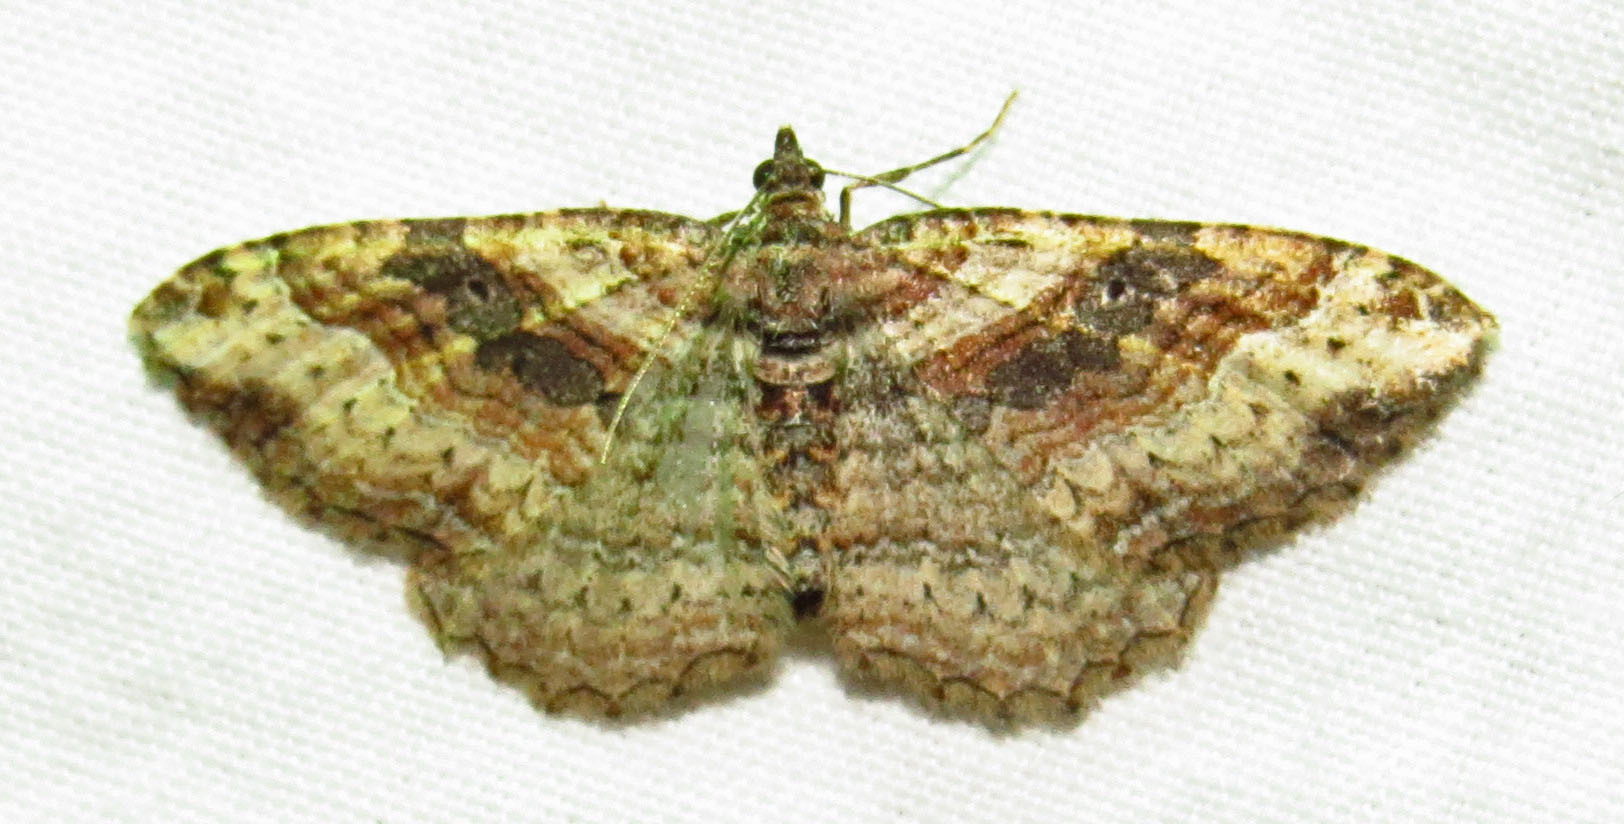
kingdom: Animalia
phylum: Arthropoda
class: Insecta
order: Lepidoptera
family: Geometridae
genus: Costaconvexa
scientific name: Costaconvexa centrostrigaria
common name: Bent-line carpet
